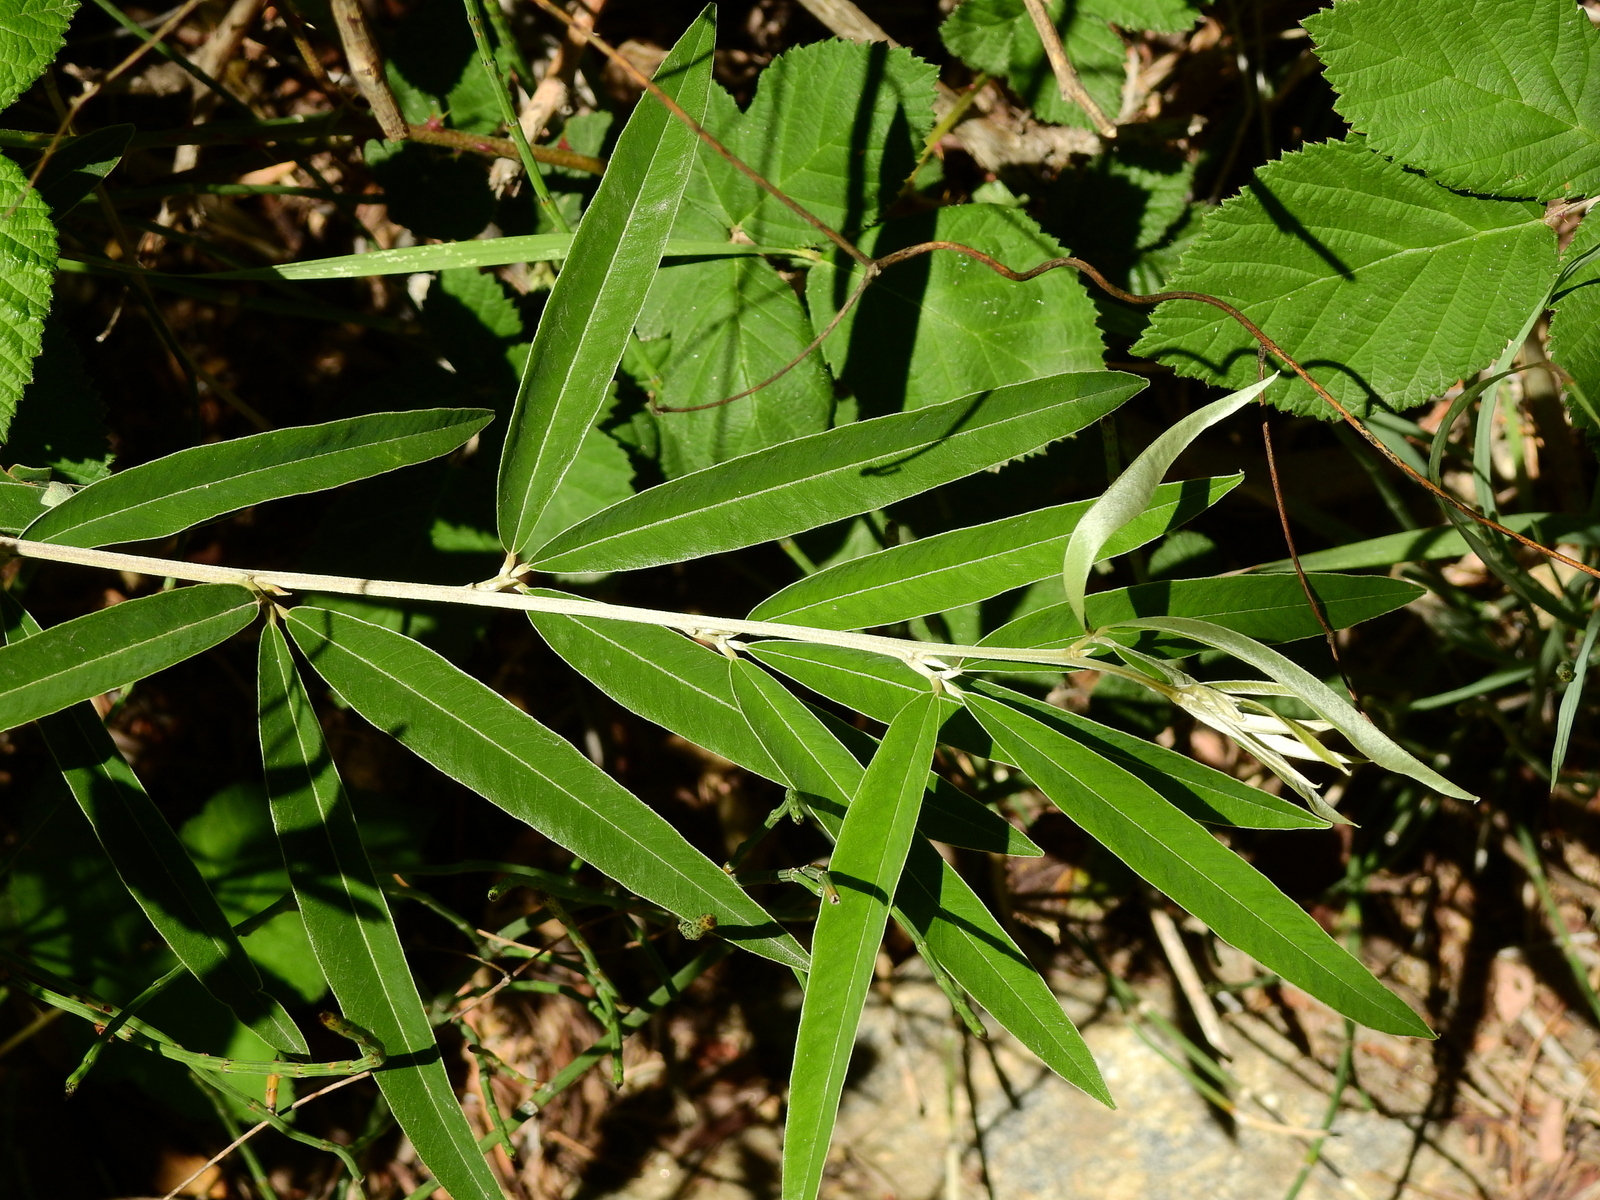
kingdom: Plantae
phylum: Tracheophyta
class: Magnoliopsida
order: Fabales
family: Fabaceae
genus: Nanogalactia
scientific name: Nanogalactia heterophylla
